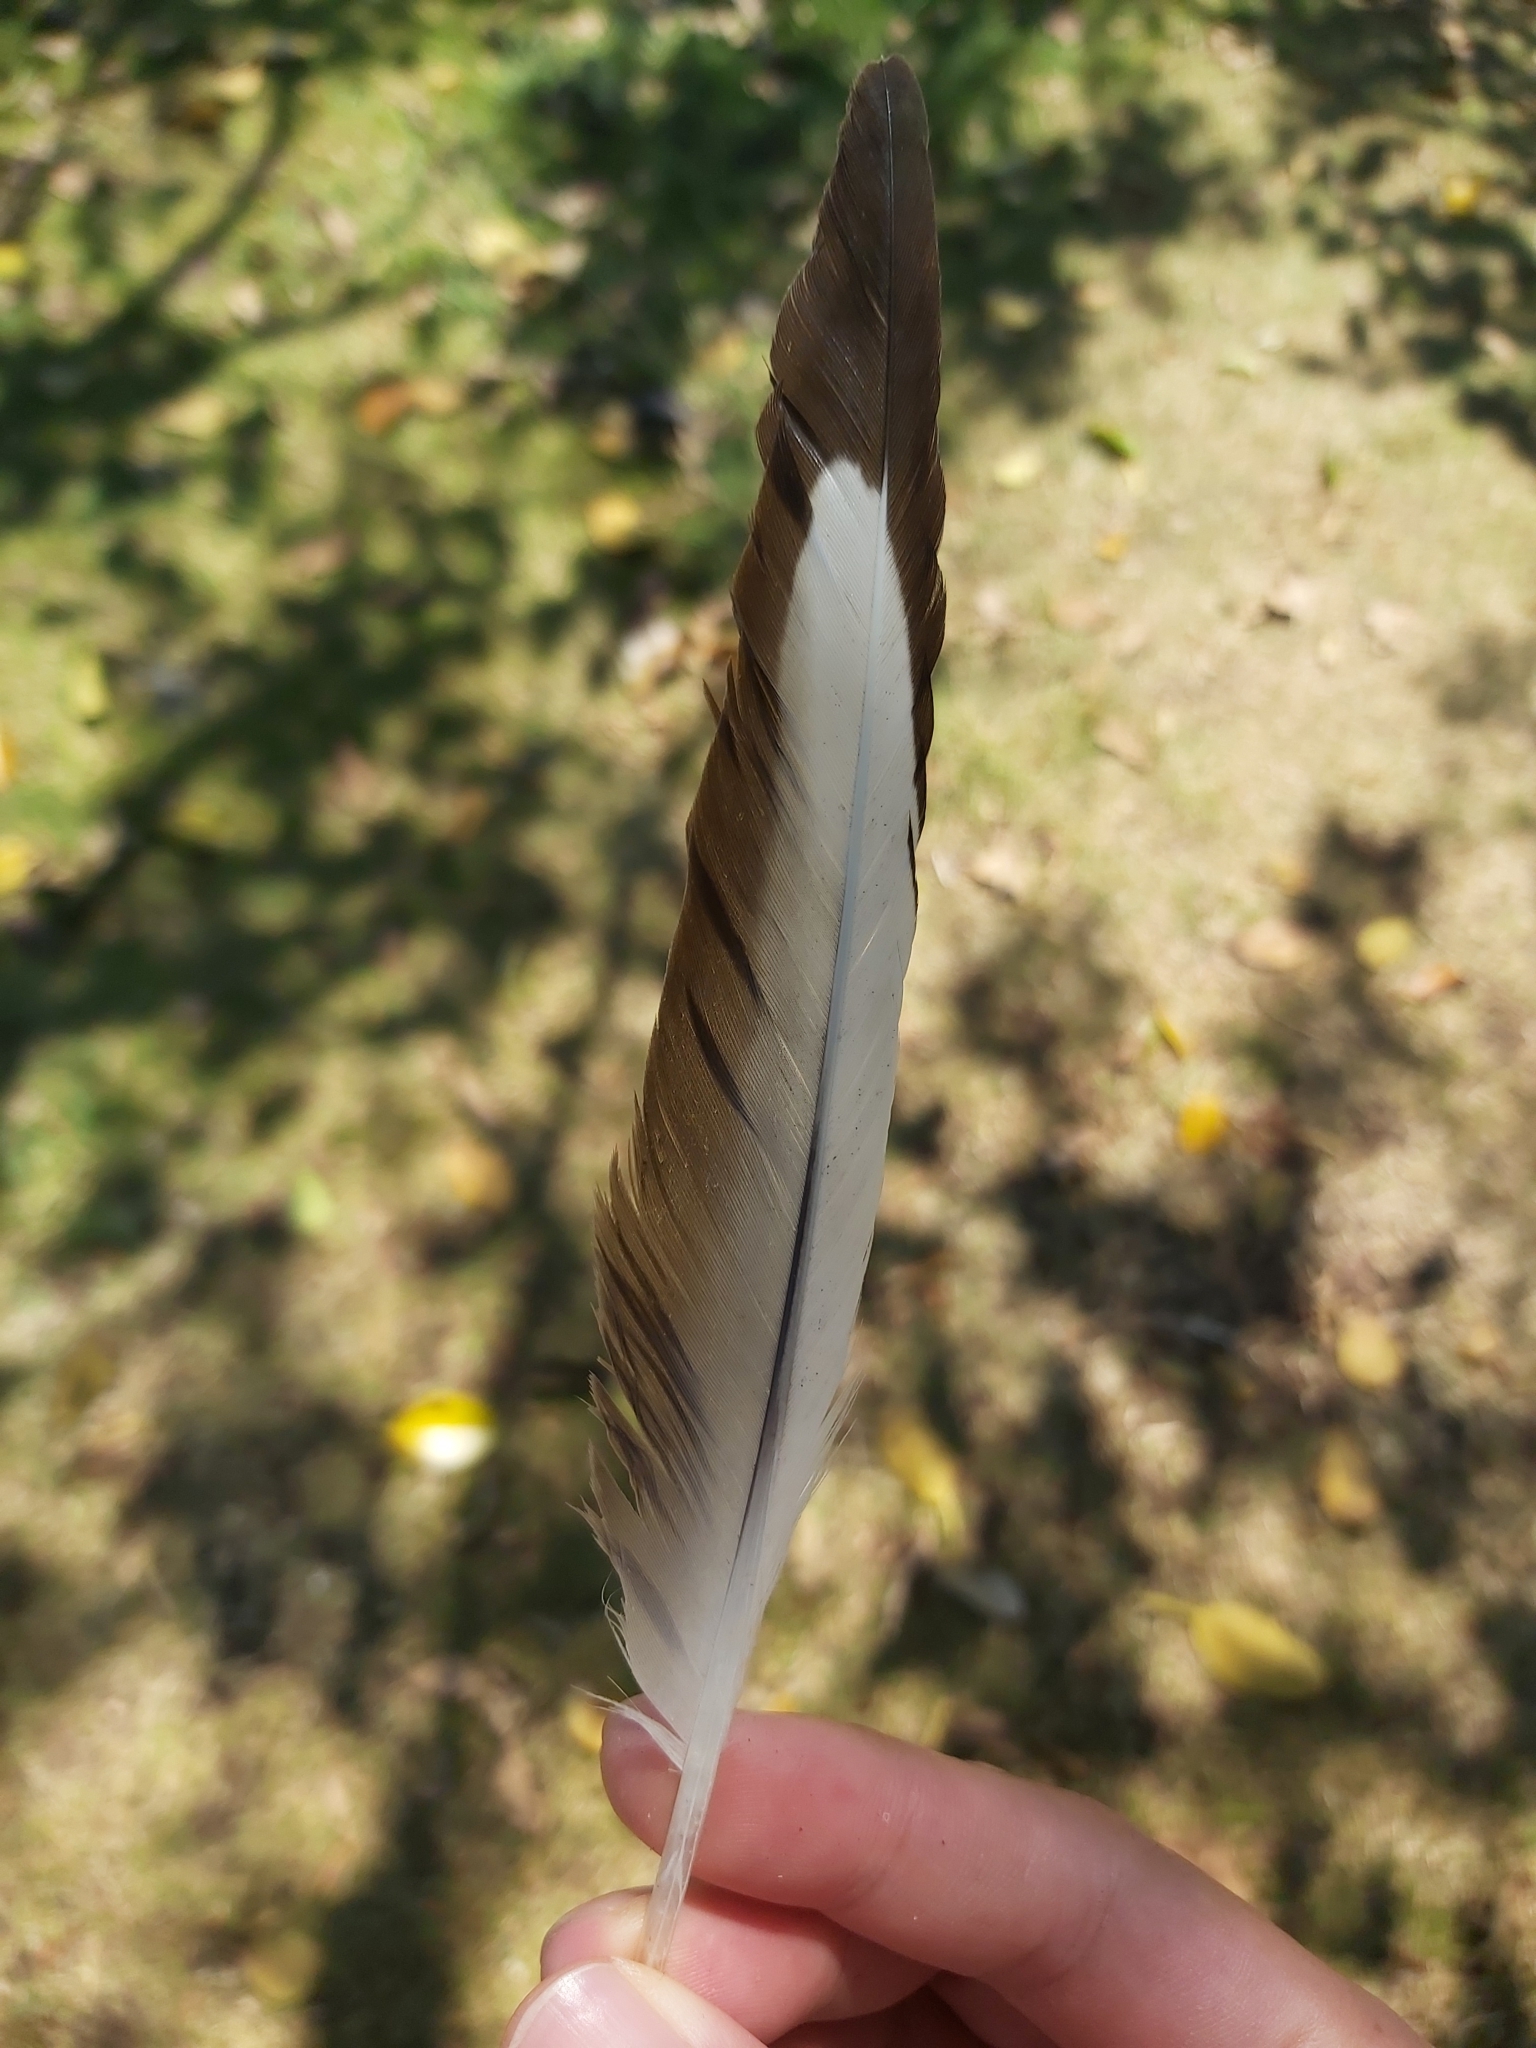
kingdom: Animalia
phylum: Chordata
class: Aves
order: Charadriiformes
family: Laridae
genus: Chroicocephalus
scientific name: Chroicocephalus novaehollandiae
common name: Silver gull
